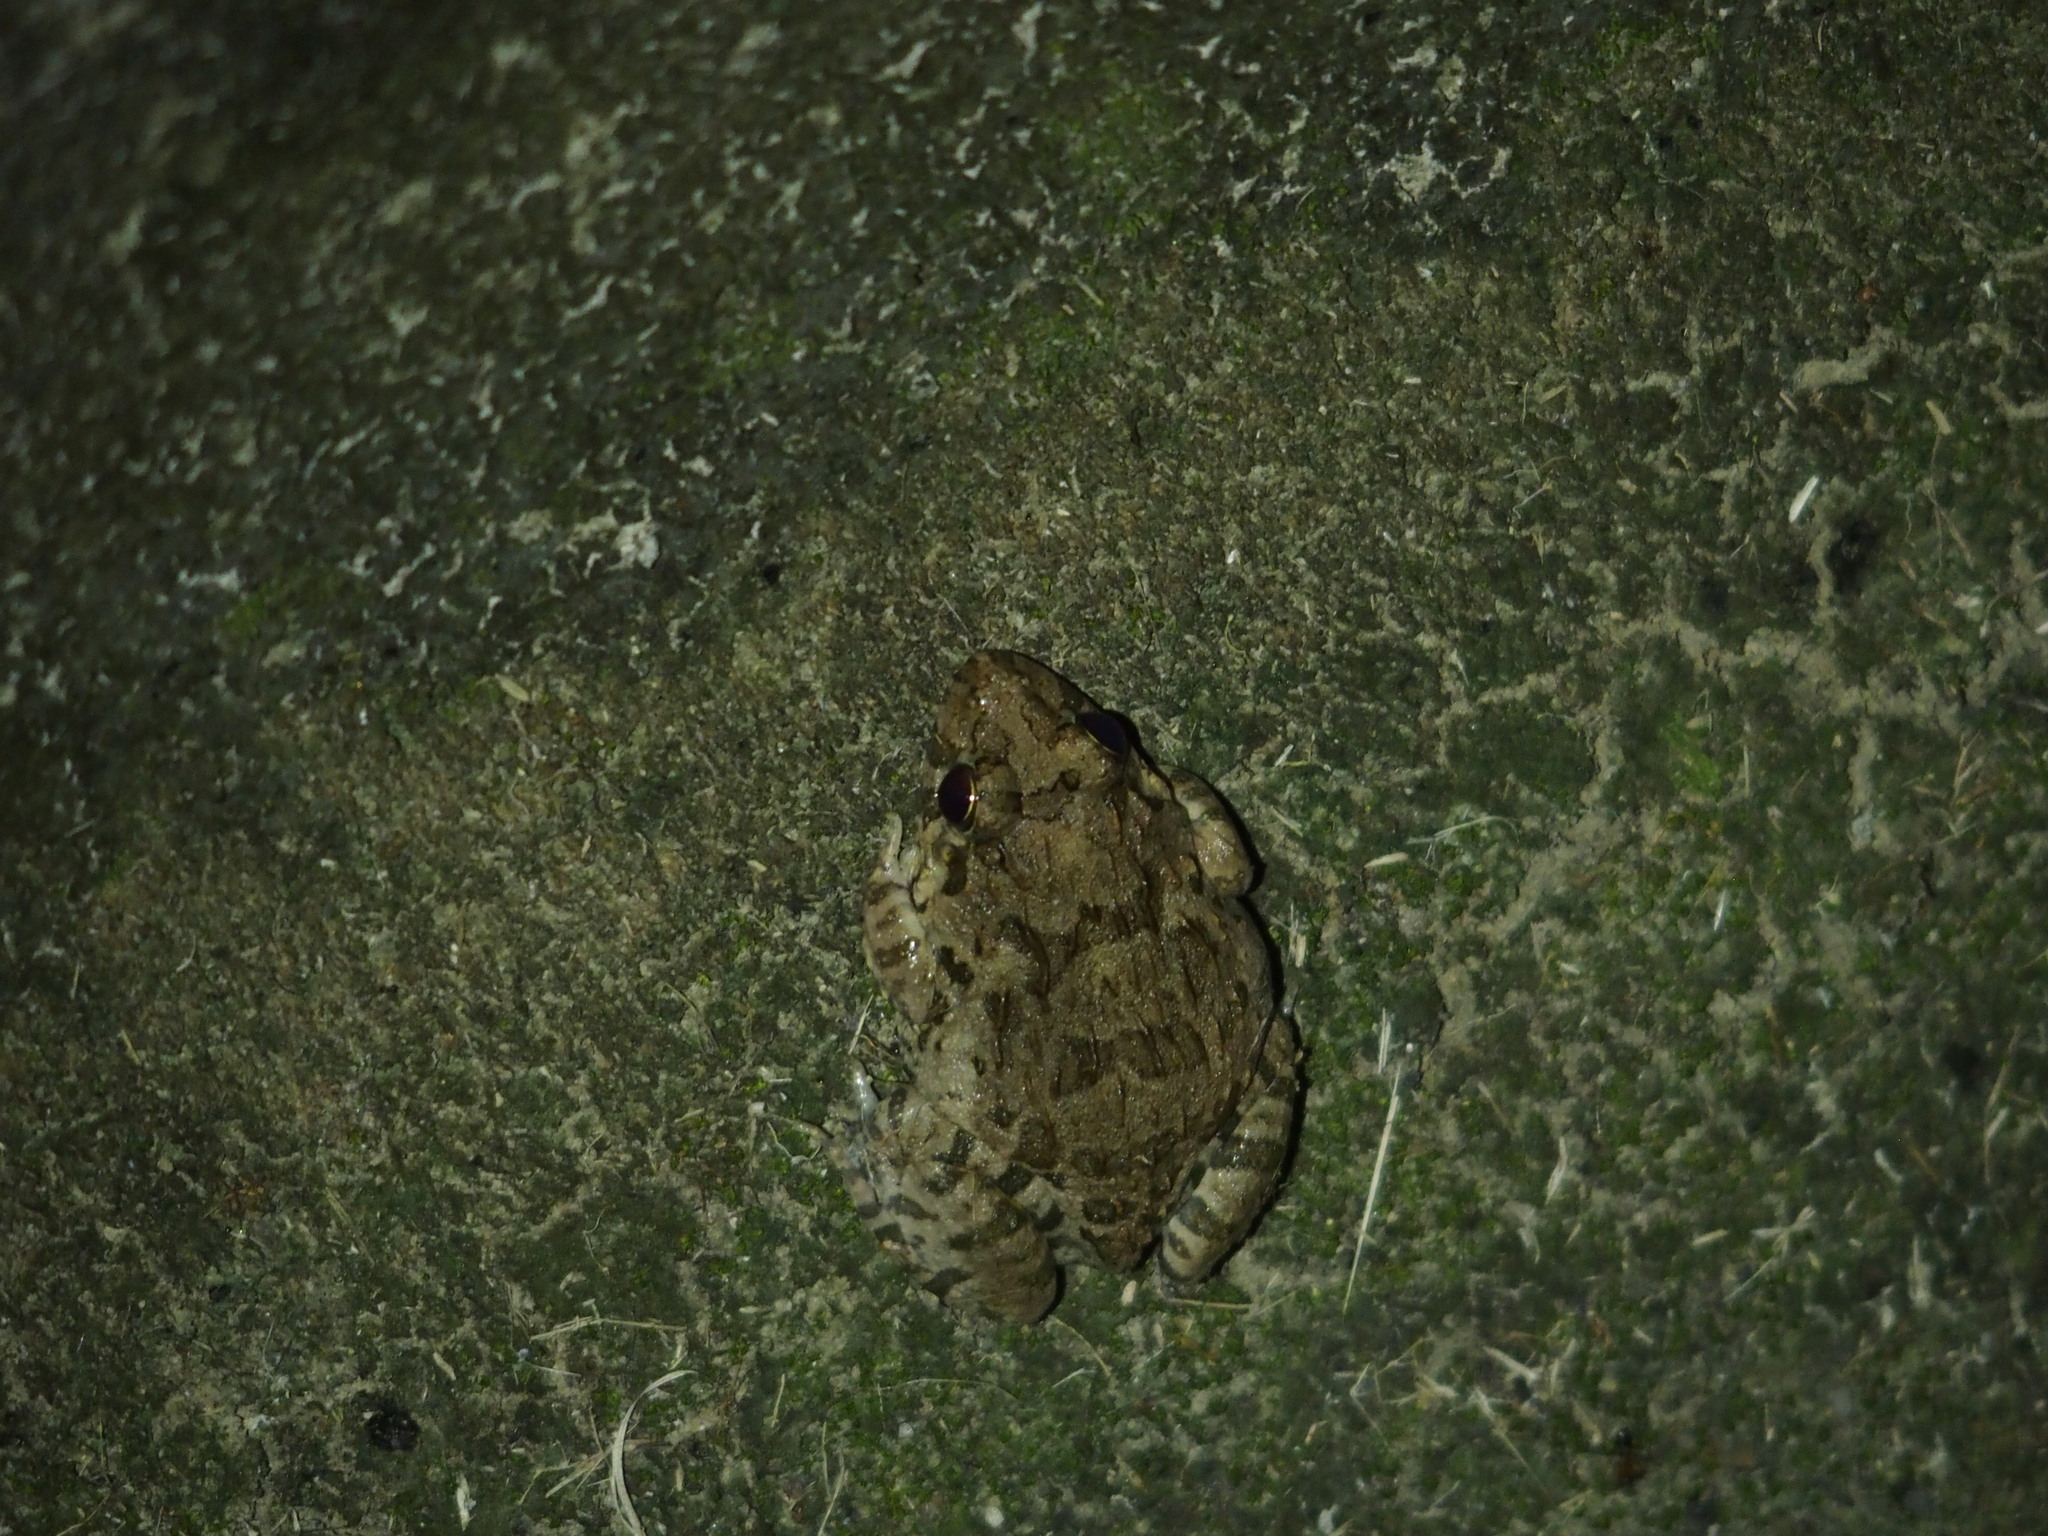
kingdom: Animalia
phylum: Chordata
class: Amphibia
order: Anura
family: Dicroglossidae
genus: Fejervarya
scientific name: Fejervarya limnocharis
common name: Asian grass frog/common pond frog/field frog/grass frog/indian rice frog
